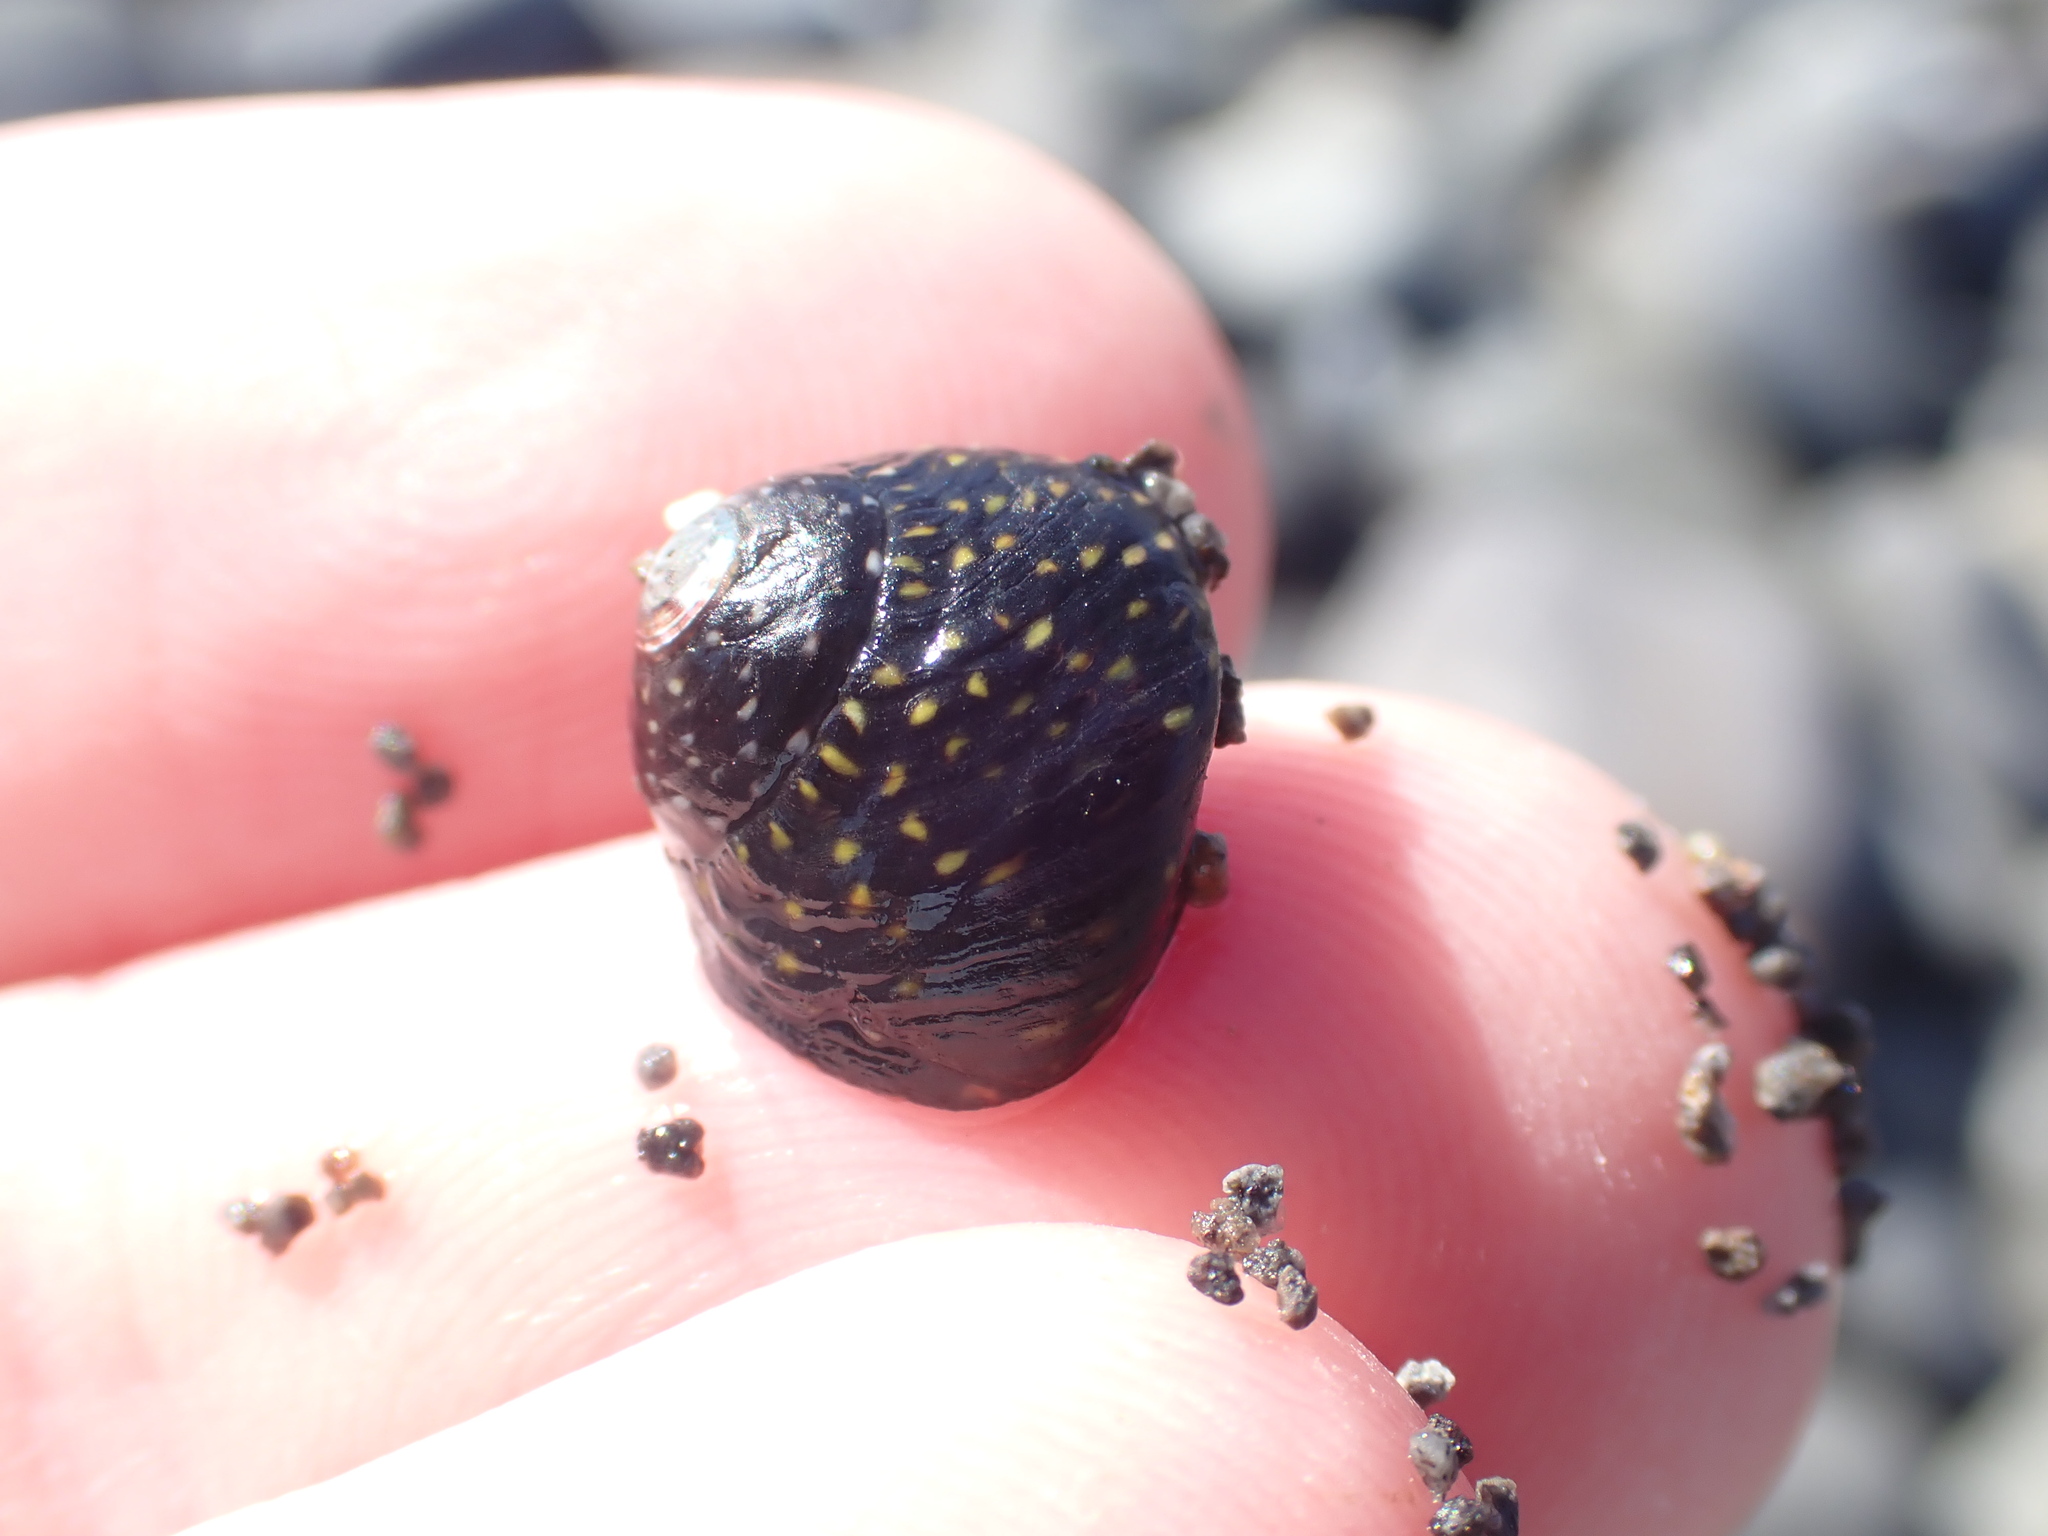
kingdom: Animalia
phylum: Mollusca
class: Gastropoda
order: Trochida
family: Trochidae
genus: Diloma
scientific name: Diloma aridum
